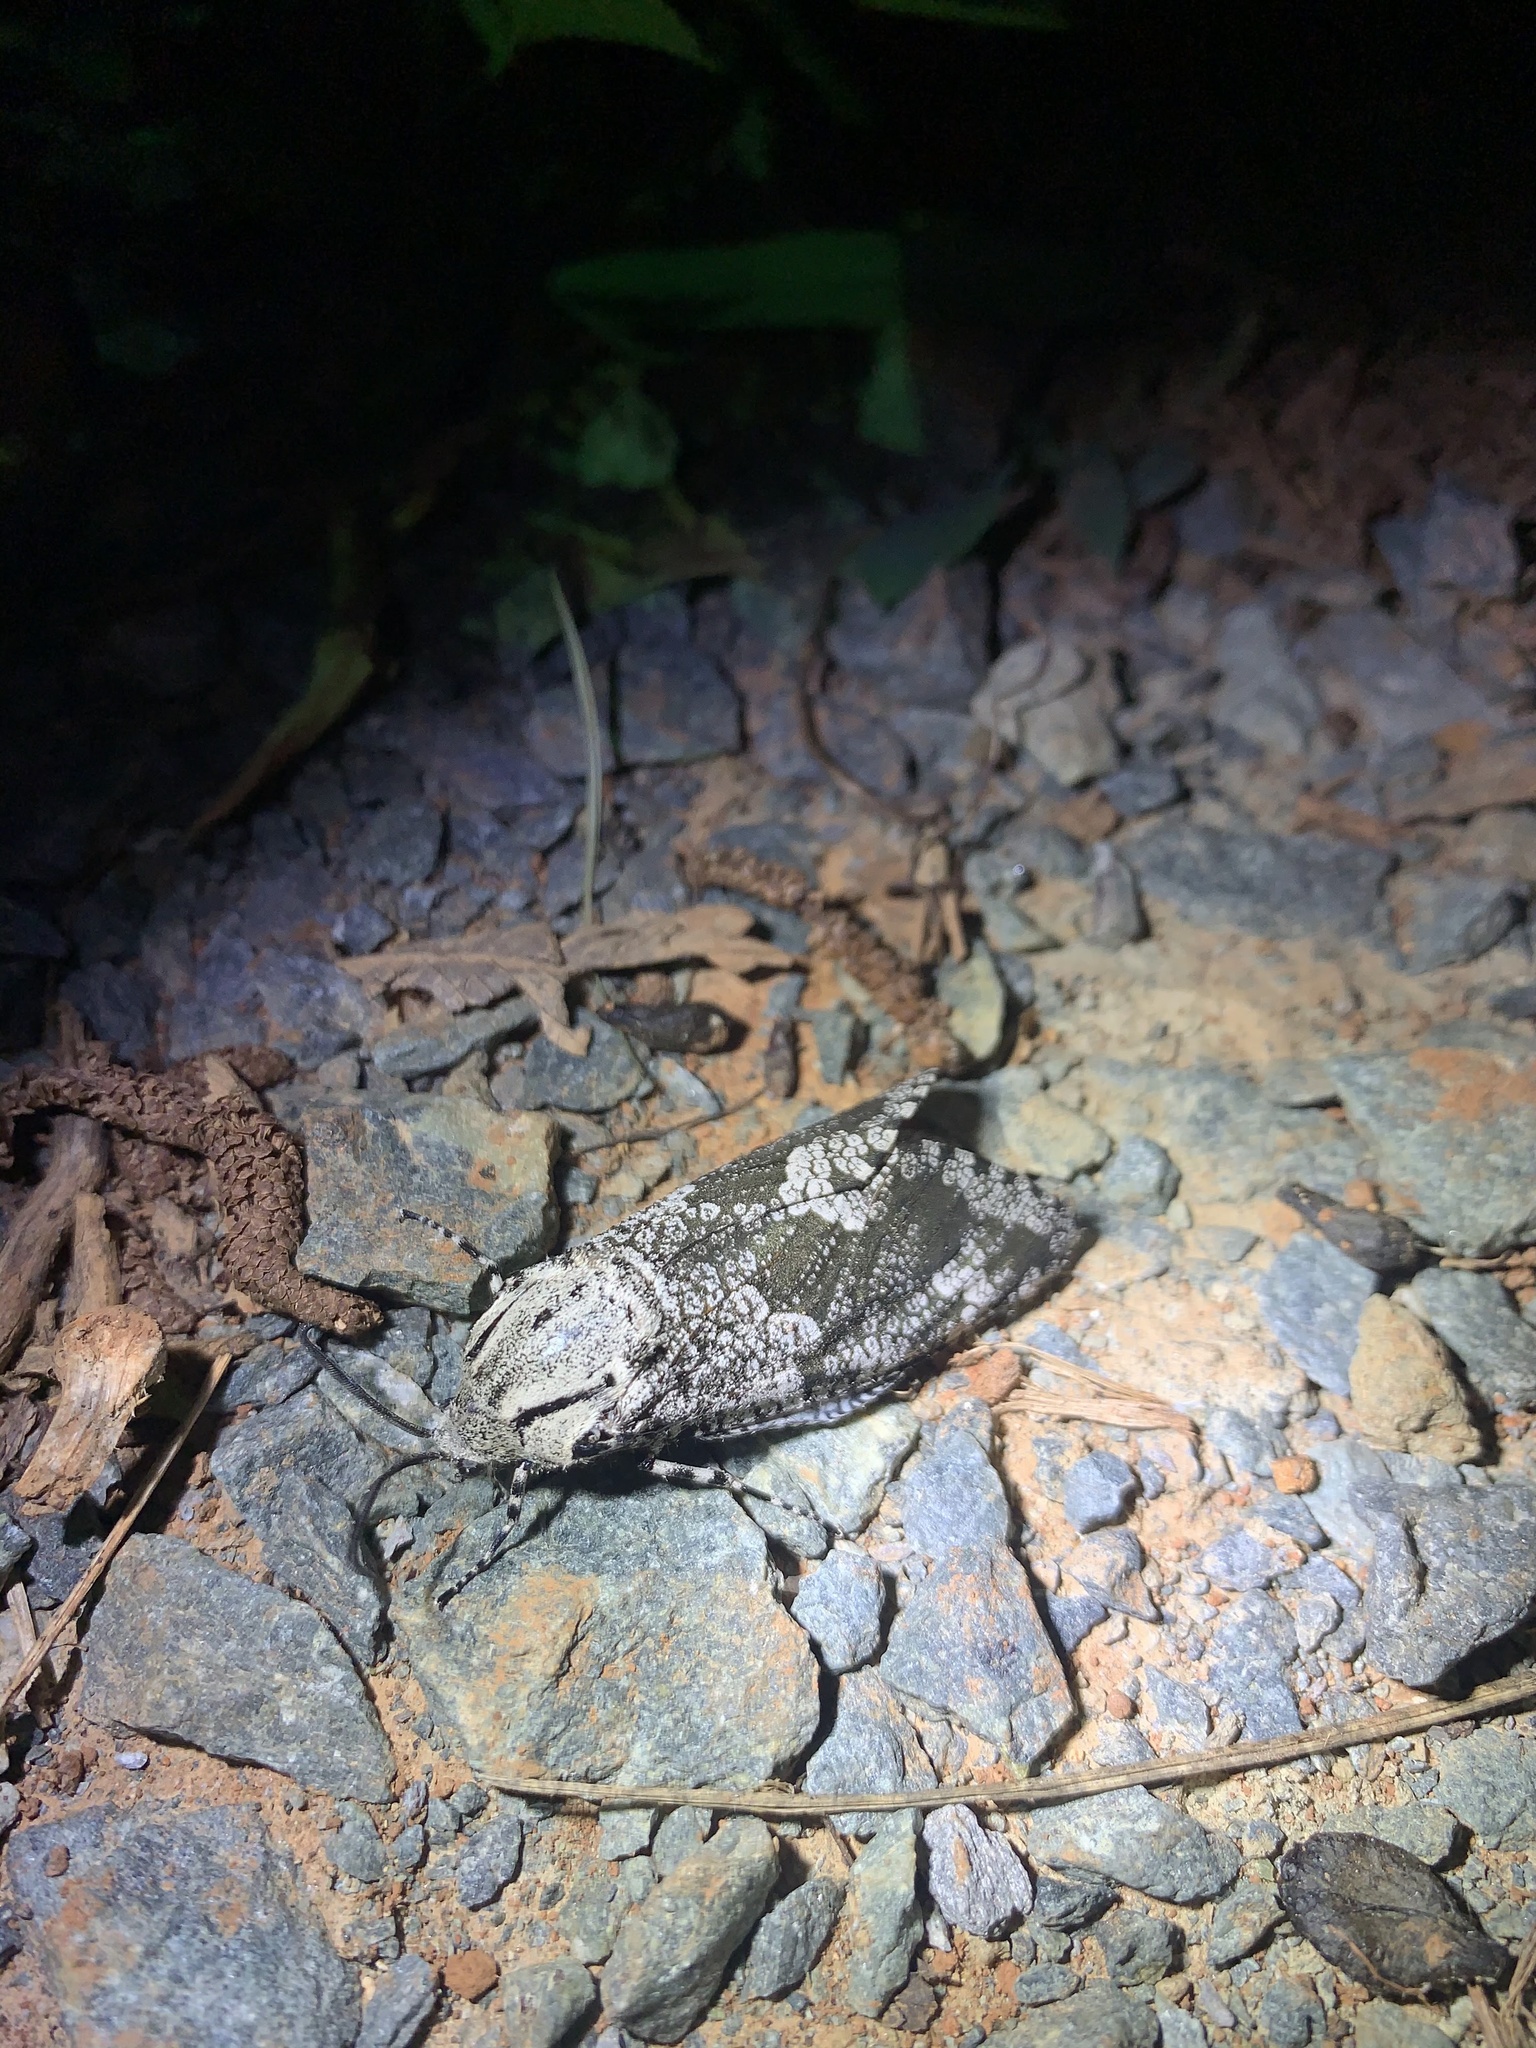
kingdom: Animalia
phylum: Arthropoda
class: Insecta
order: Lepidoptera
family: Cossidae
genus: Prionoxystus
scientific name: Prionoxystus robiniae
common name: Carpenterworm
